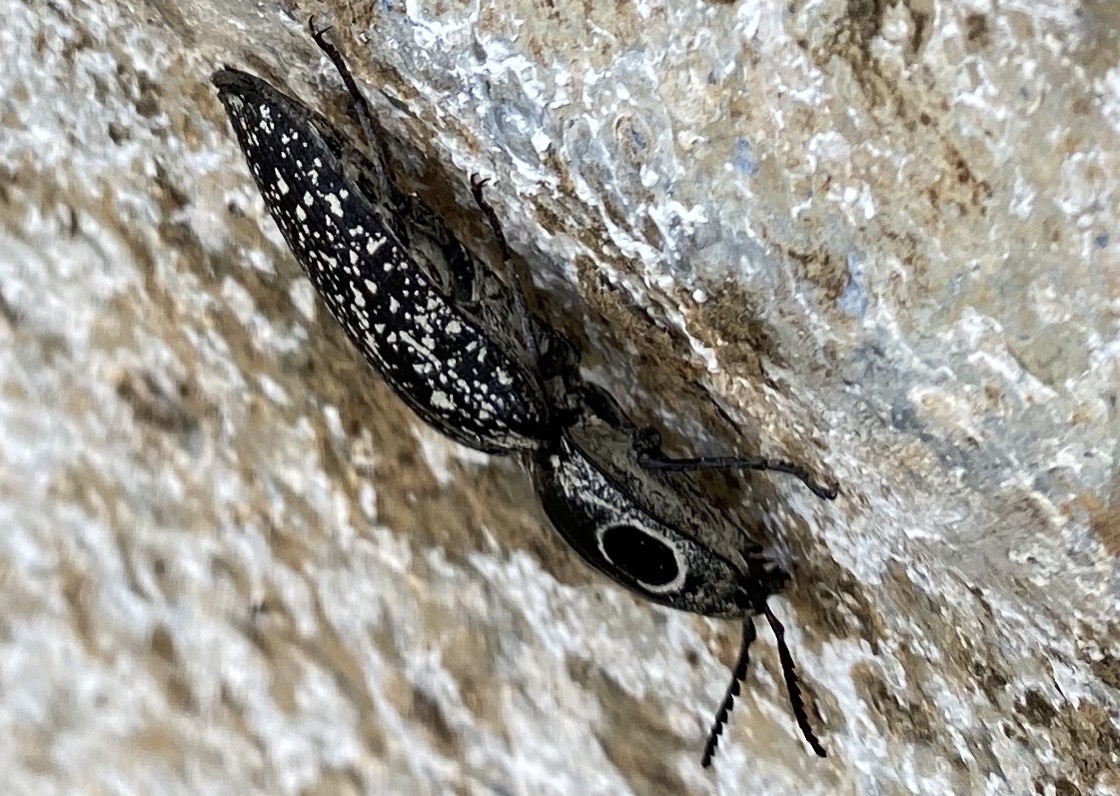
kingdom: Animalia
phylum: Arthropoda
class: Insecta
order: Coleoptera
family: Elateridae
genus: Alaus
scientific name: Alaus oculatus
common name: Eastern eyed click beetle
